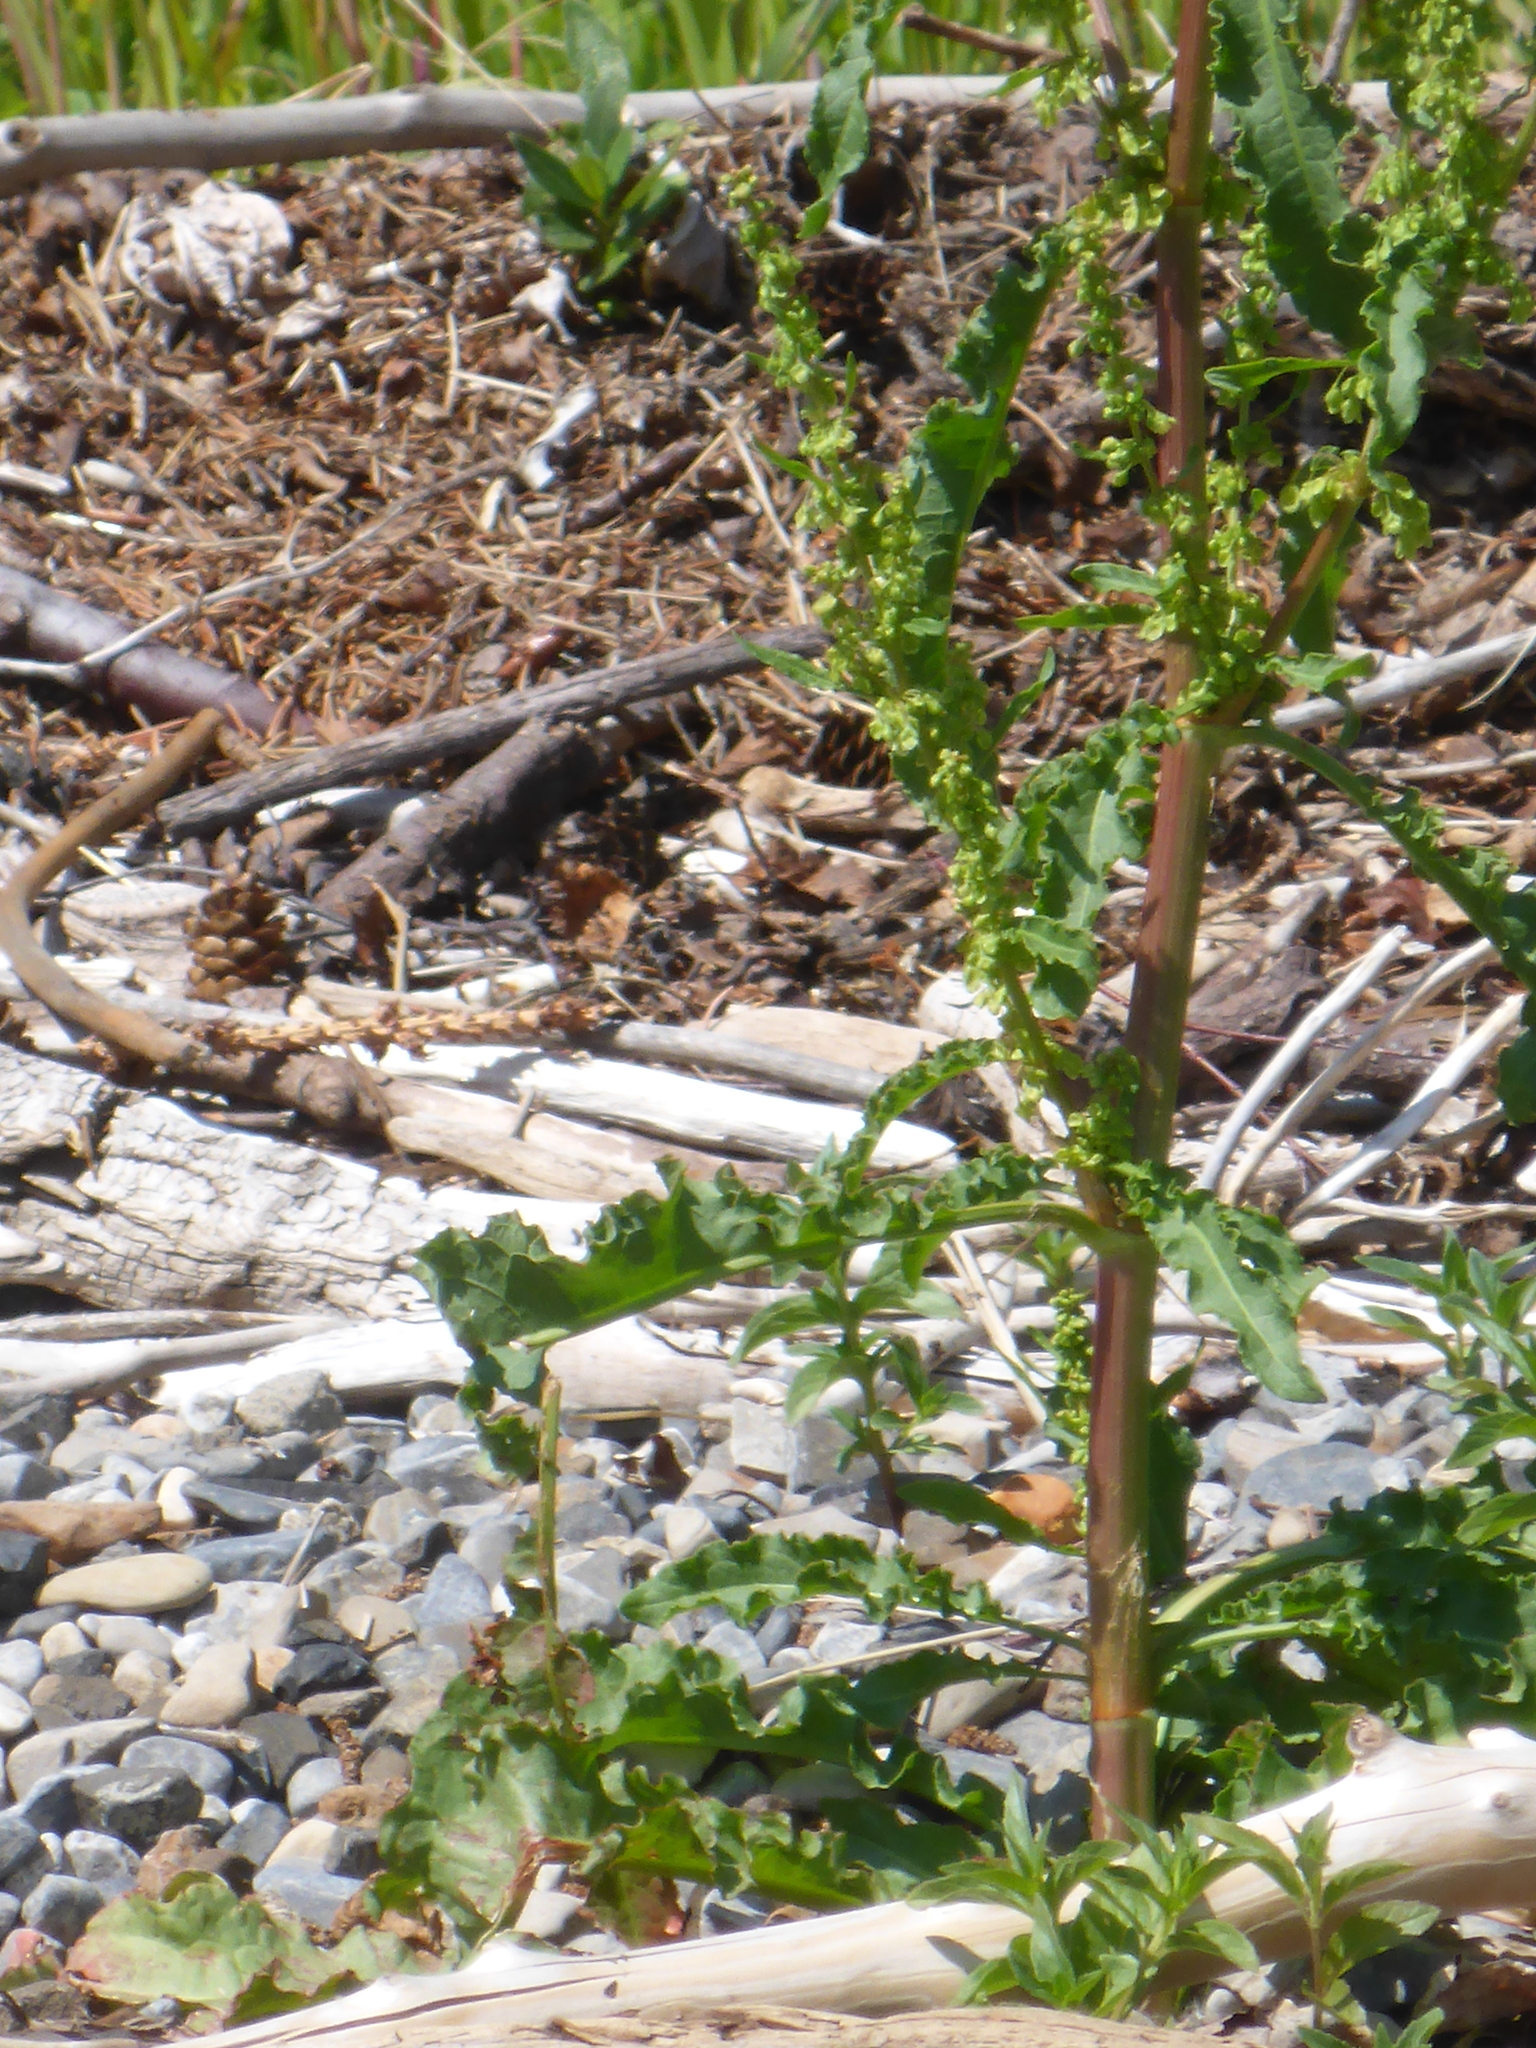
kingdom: Plantae
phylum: Tracheophyta
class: Magnoliopsida
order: Caryophyllales
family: Polygonaceae
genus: Rumex
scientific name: Rumex crispus
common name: Curled dock
